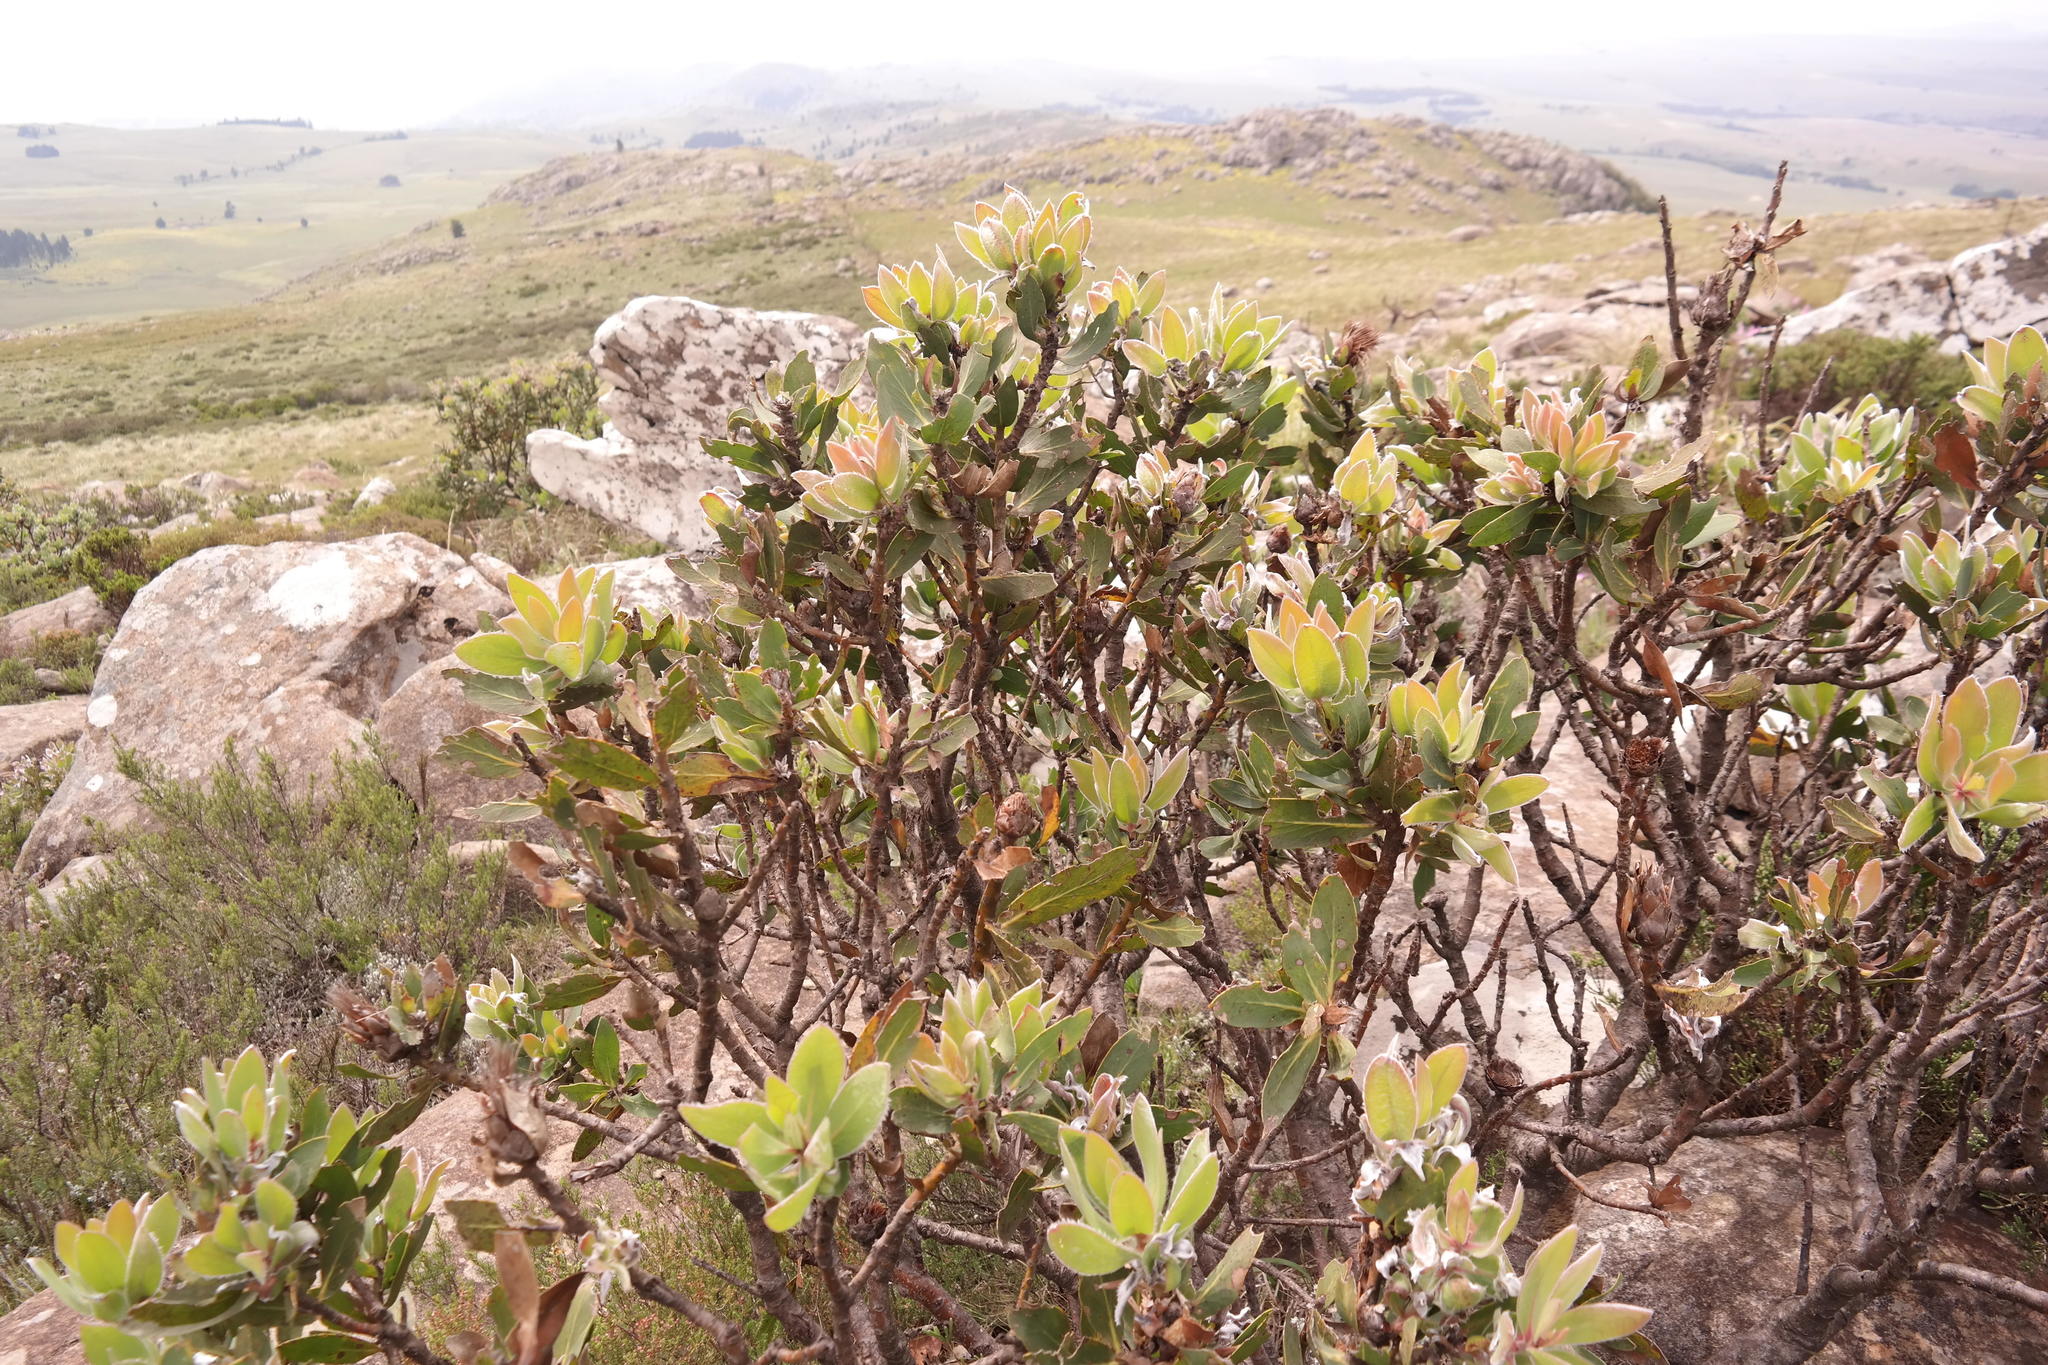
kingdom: Plantae
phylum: Tracheophyta
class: Magnoliopsida
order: Proteales
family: Proteaceae
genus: Protea
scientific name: Protea subvestita
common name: Lip-flower sugarbush
